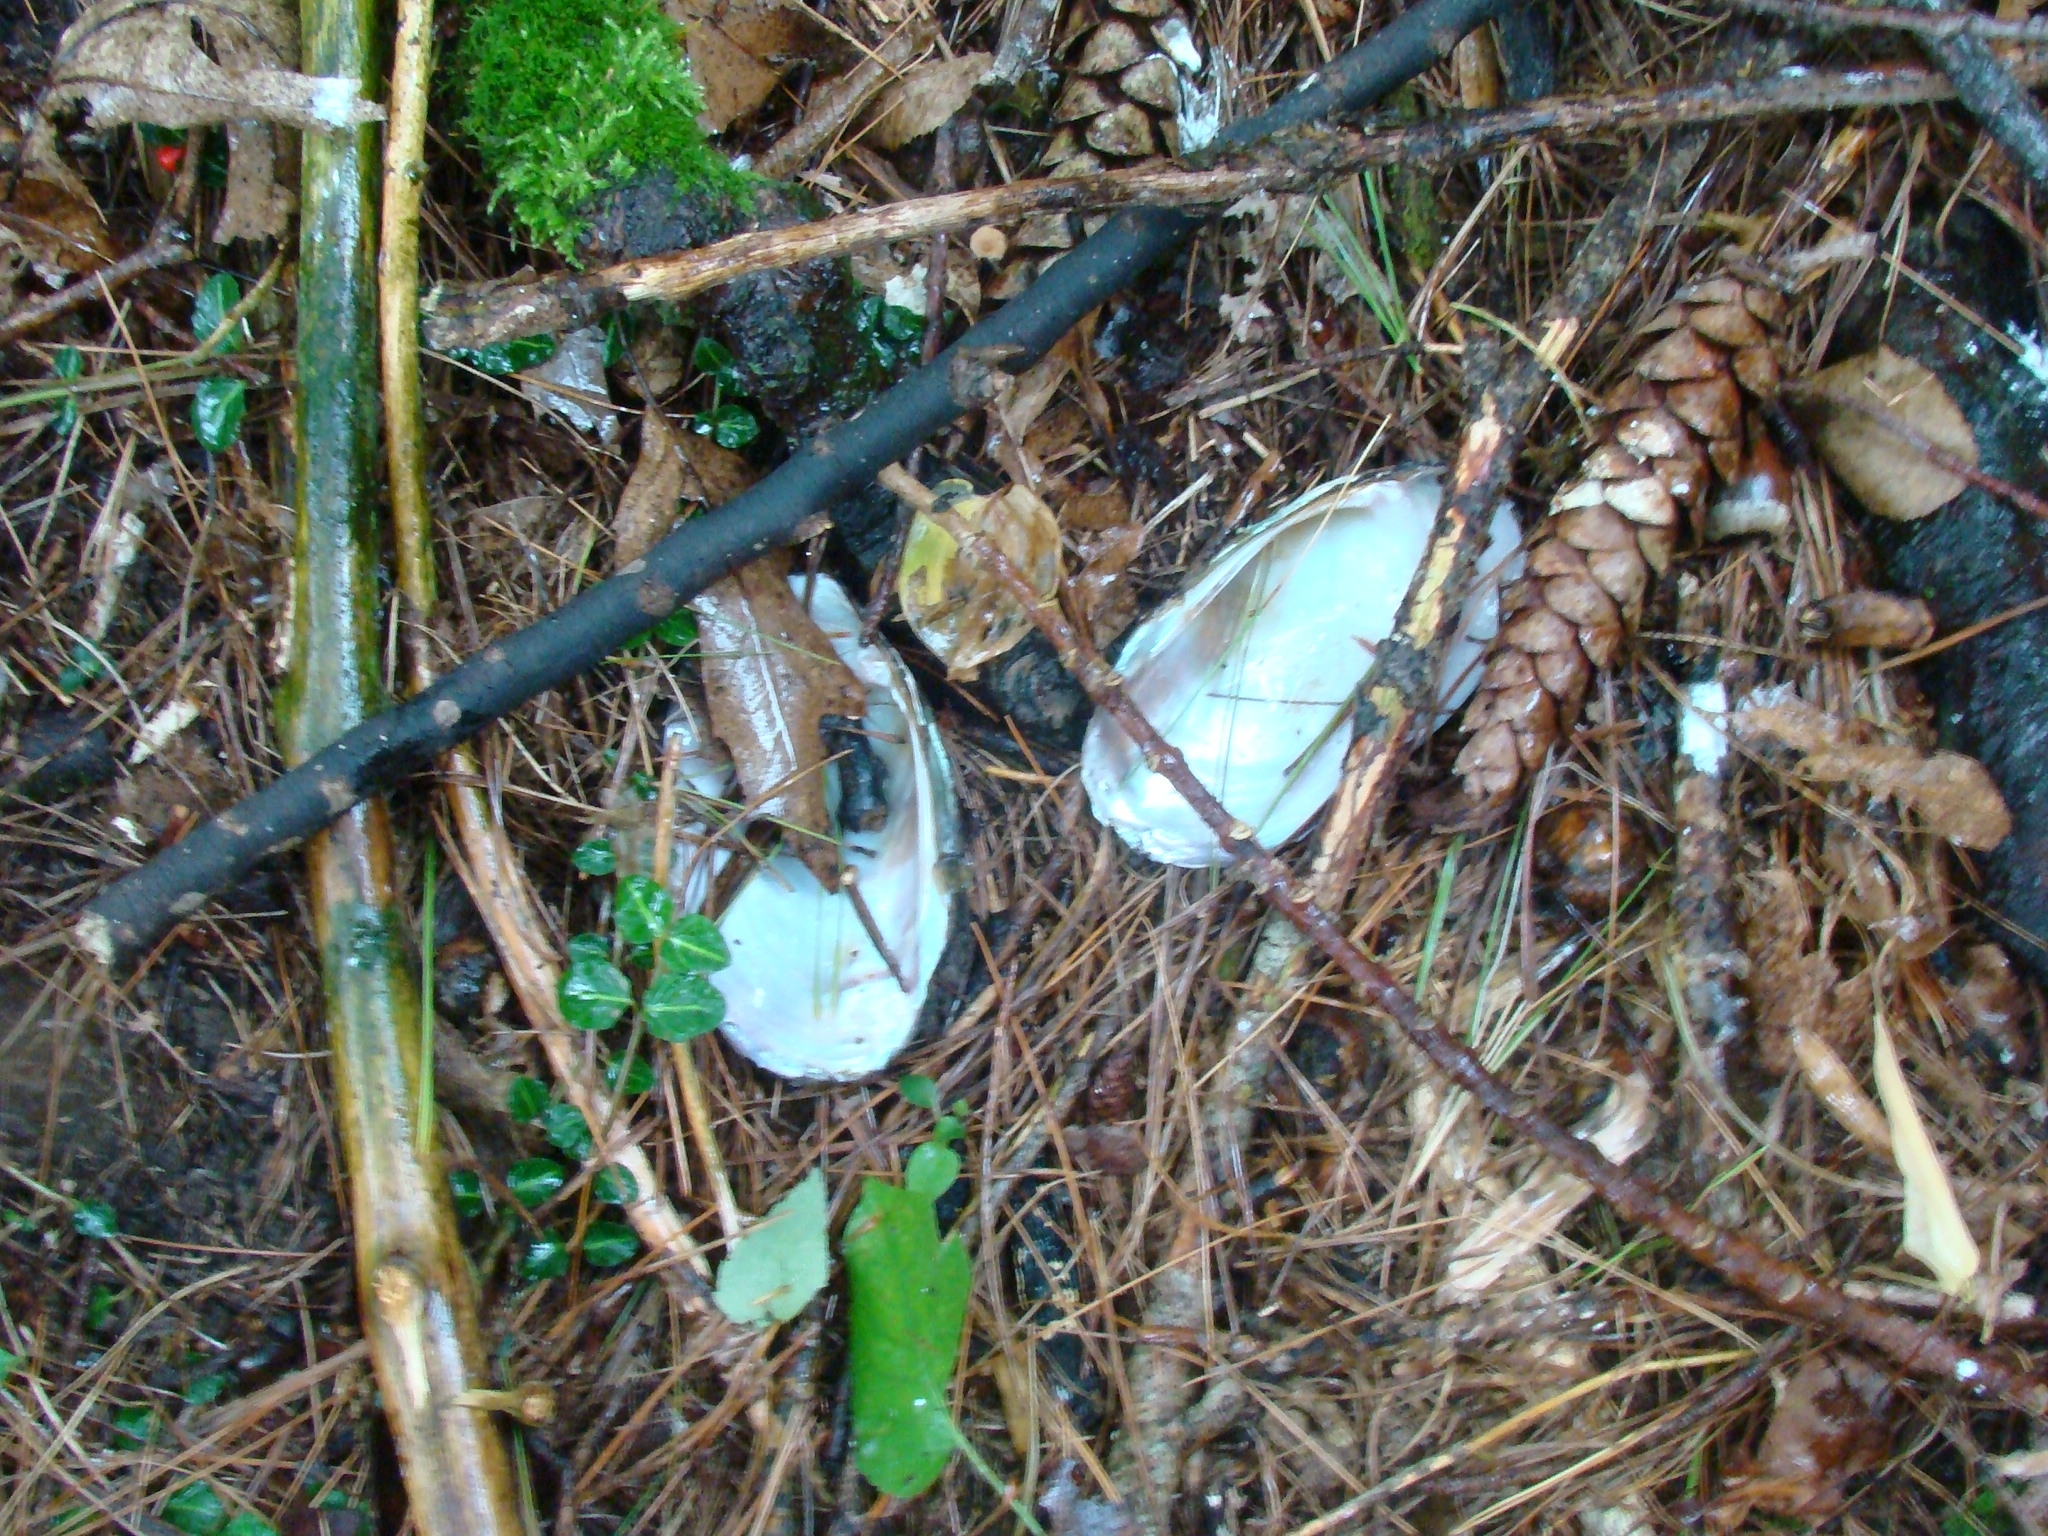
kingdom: Animalia
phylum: Mollusca
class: Bivalvia
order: Unionida
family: Unionidae
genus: Lampsilis
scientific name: Lampsilis radiata
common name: Eastern lampmussel
